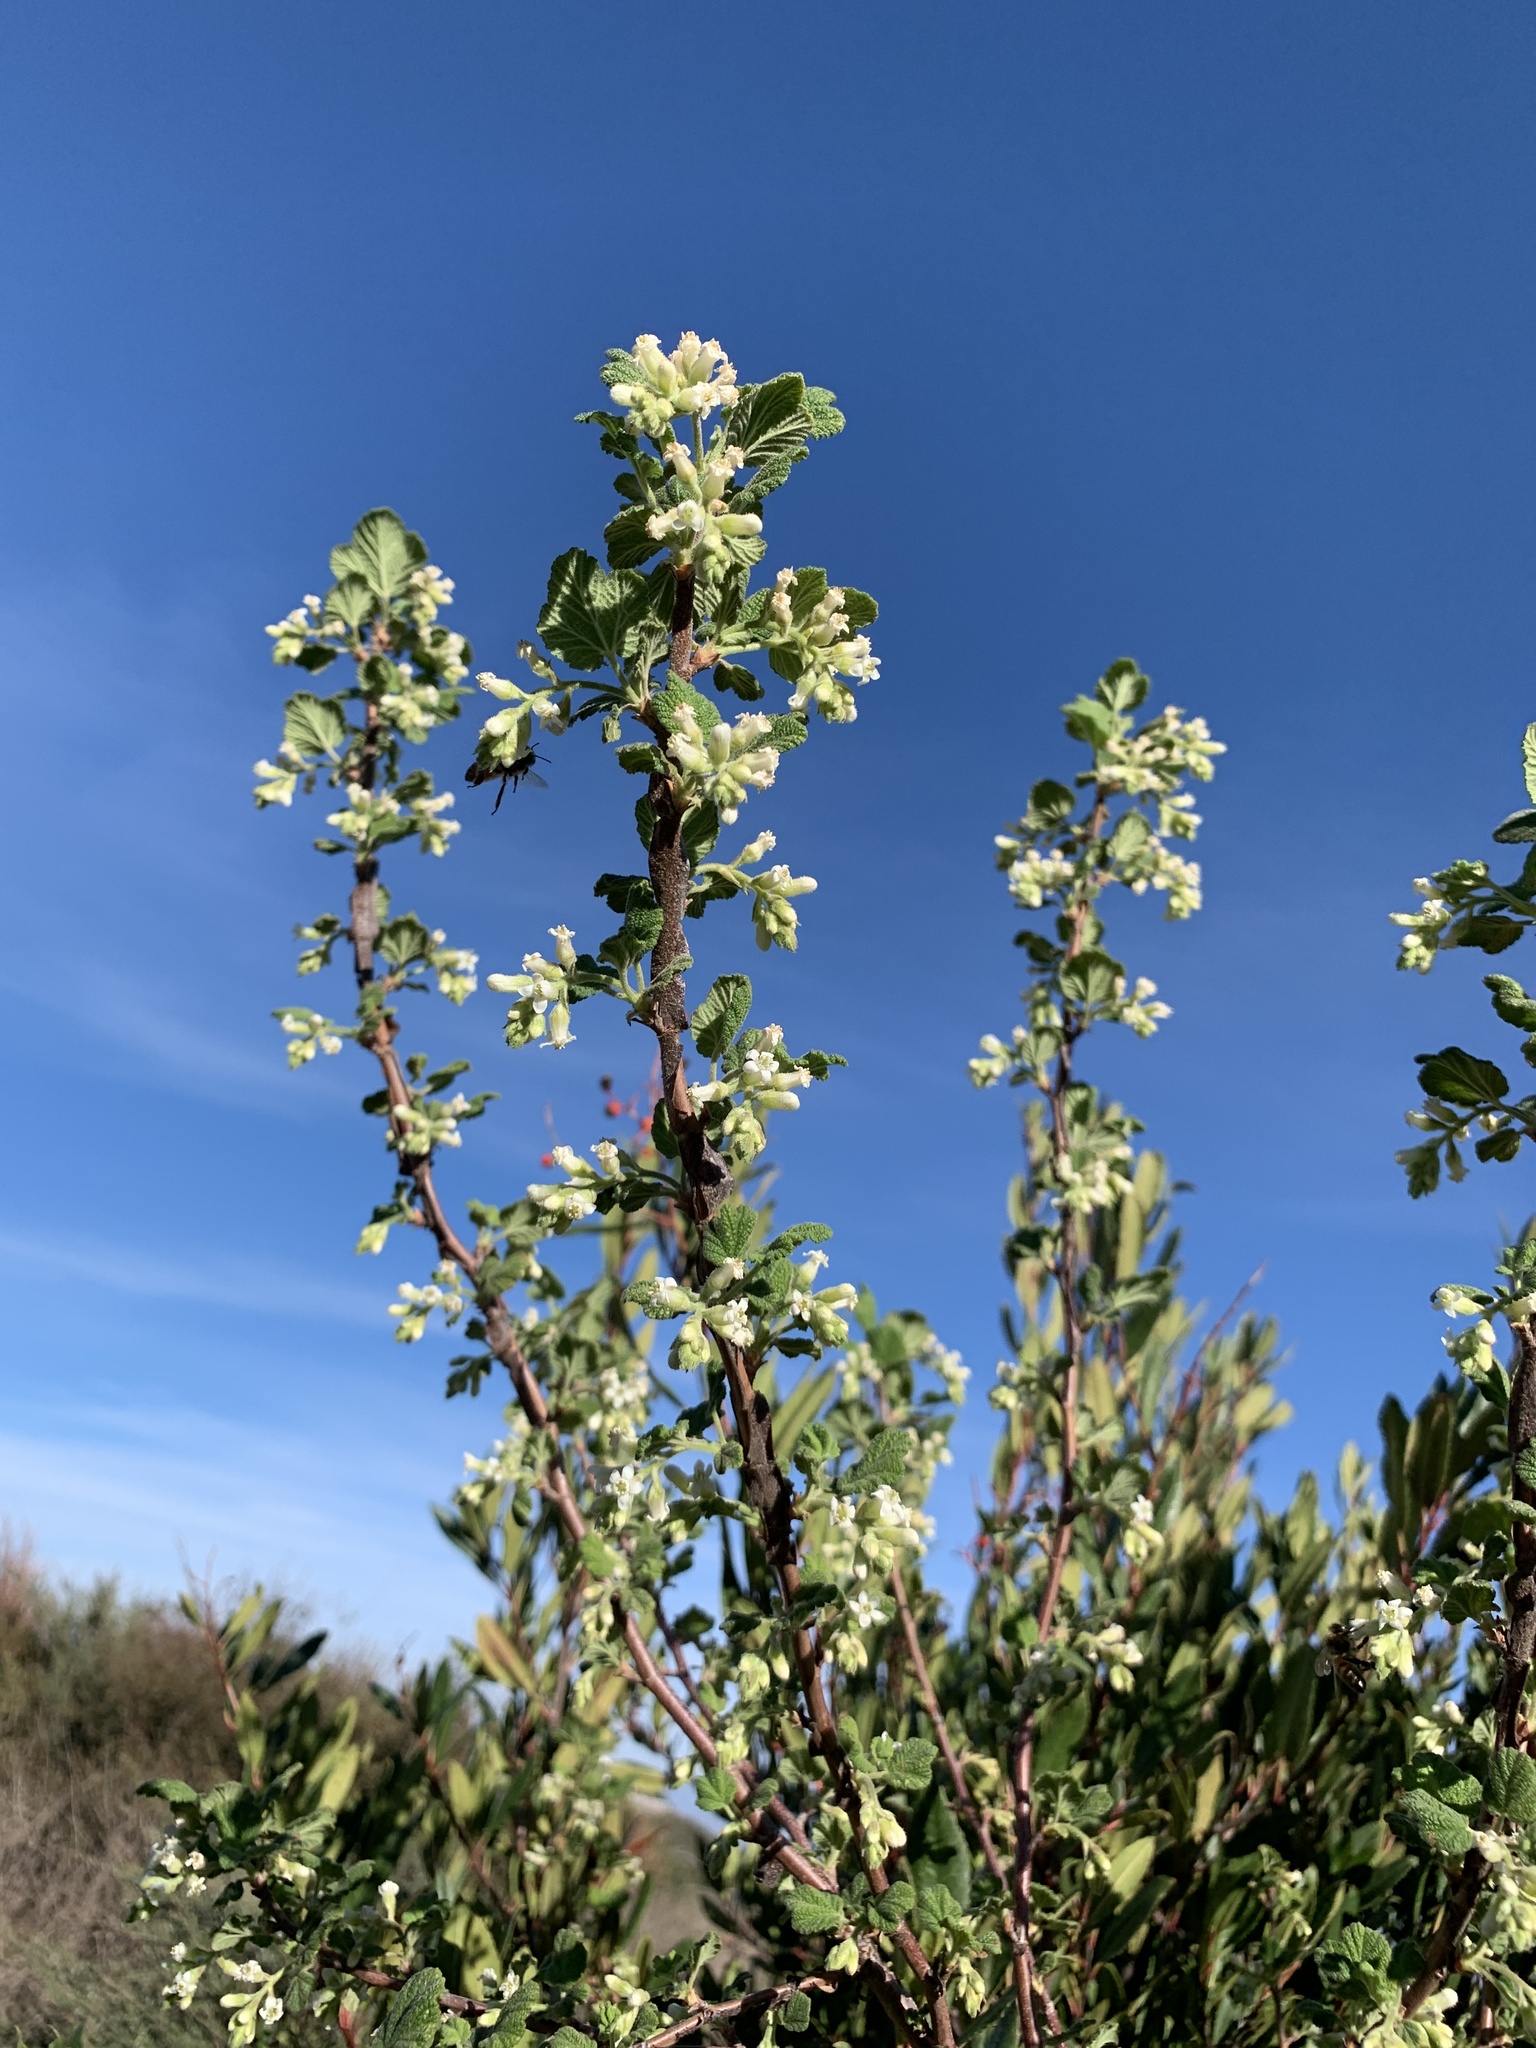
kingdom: Plantae
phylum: Tracheophyta
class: Magnoliopsida
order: Saxifragales
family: Grossulariaceae
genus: Ribes
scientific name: Ribes indecorum
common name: White-flower currant
